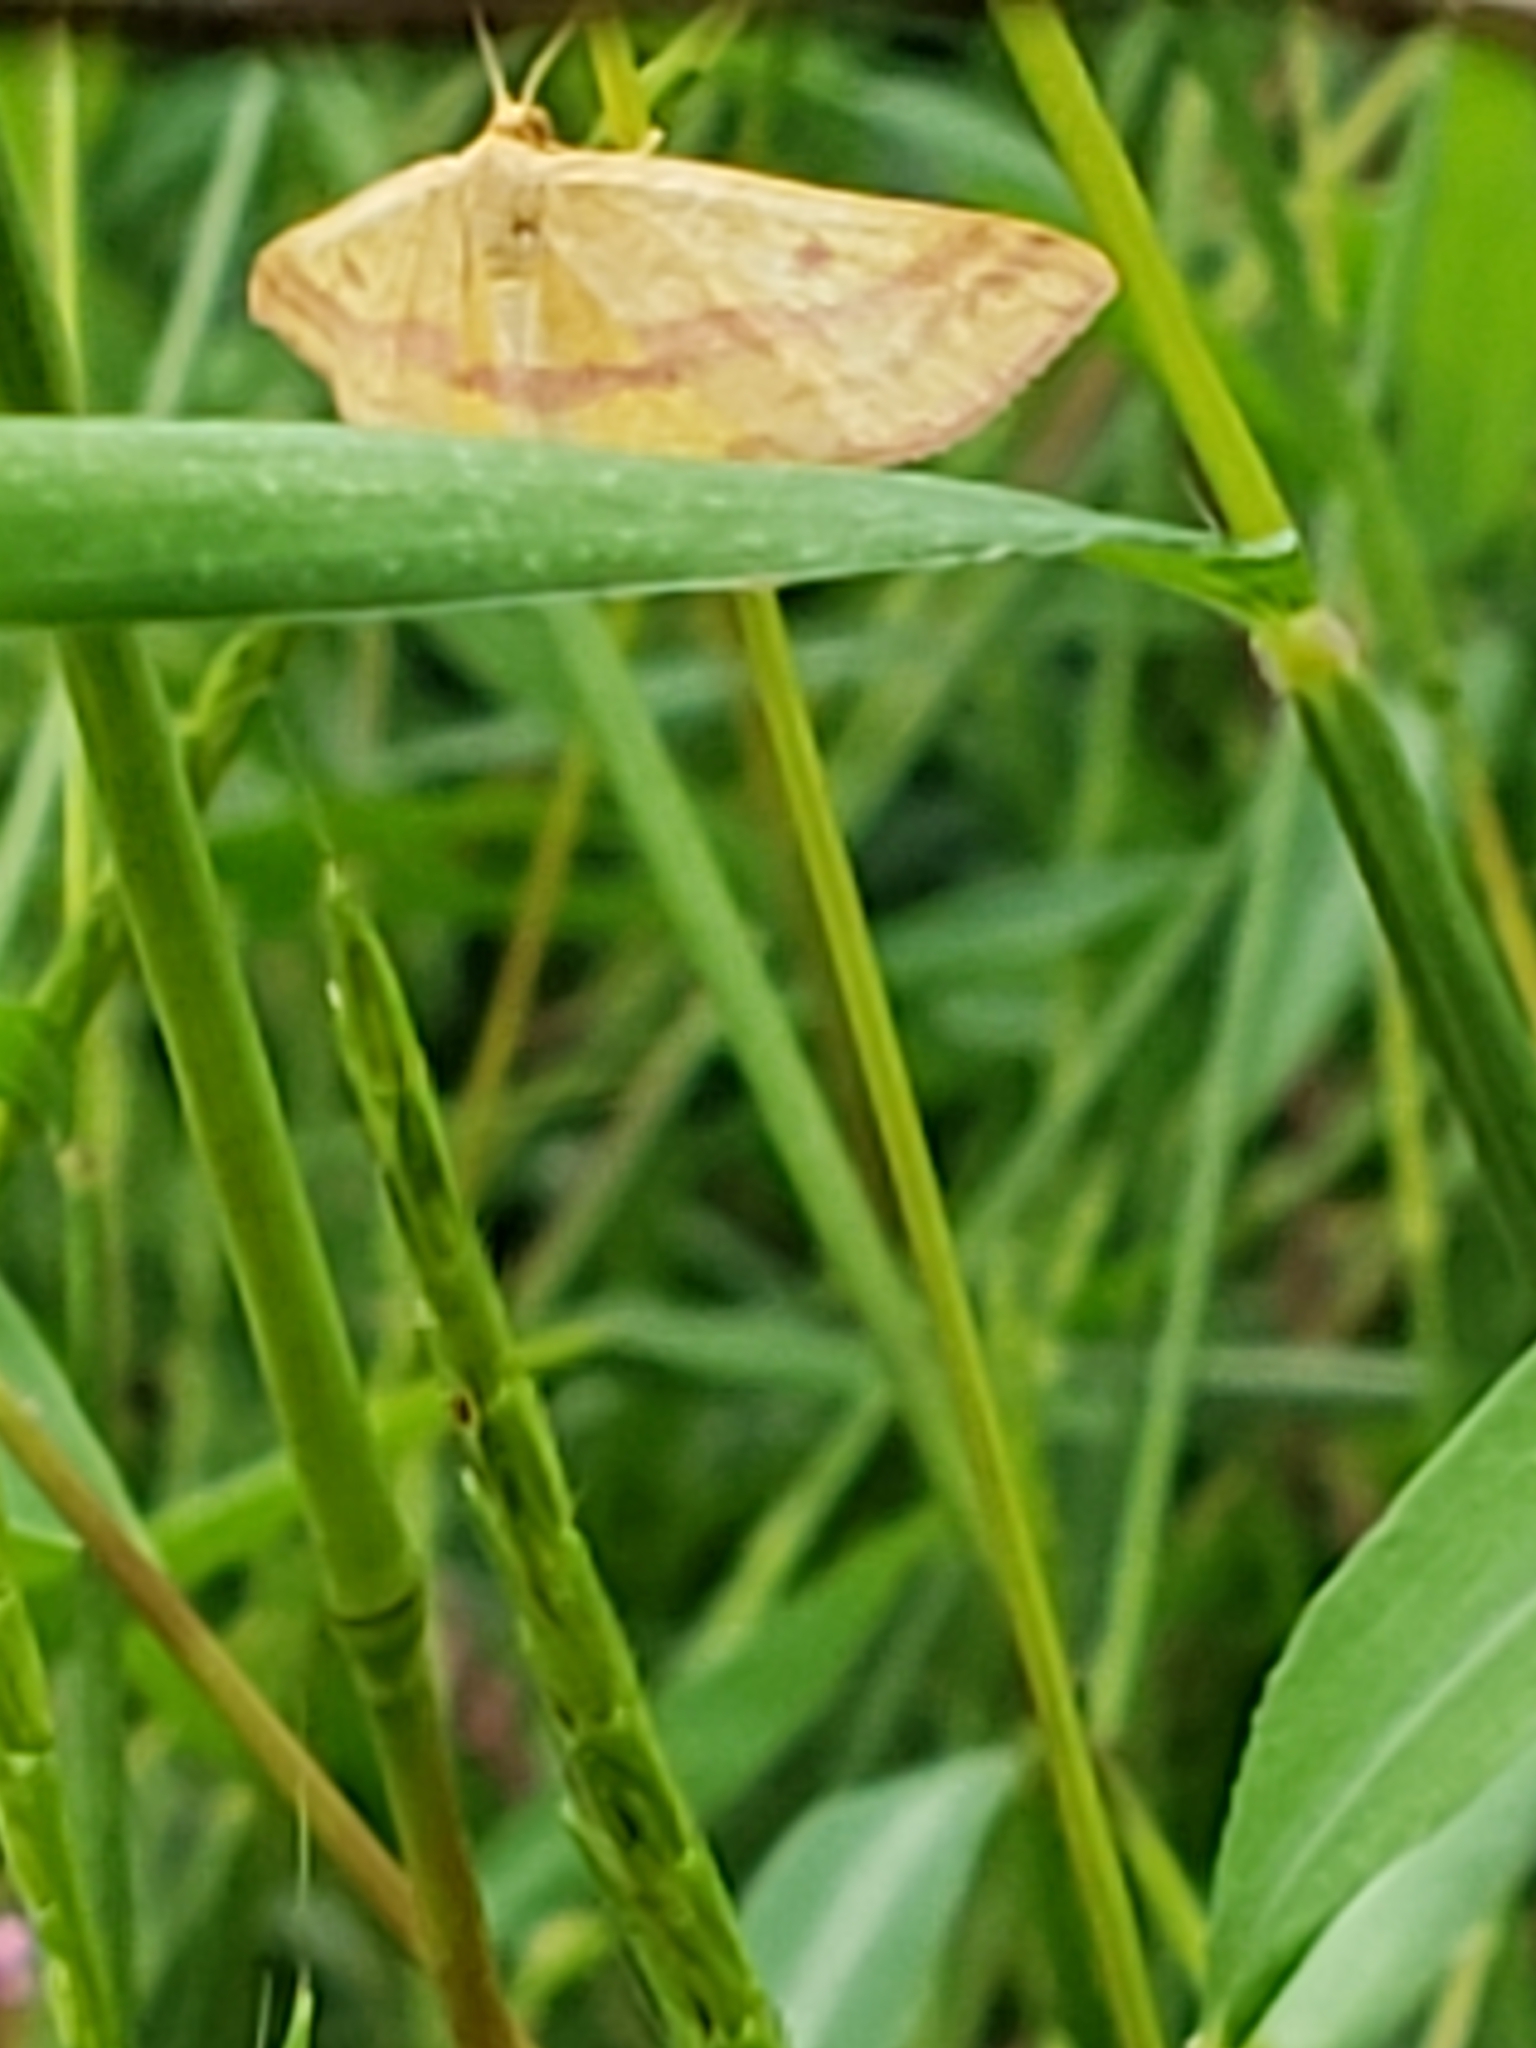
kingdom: Animalia
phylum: Arthropoda
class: Insecta
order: Lepidoptera
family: Geometridae
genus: Haematopis
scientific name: Haematopis grataria
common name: Chickweed geometer
